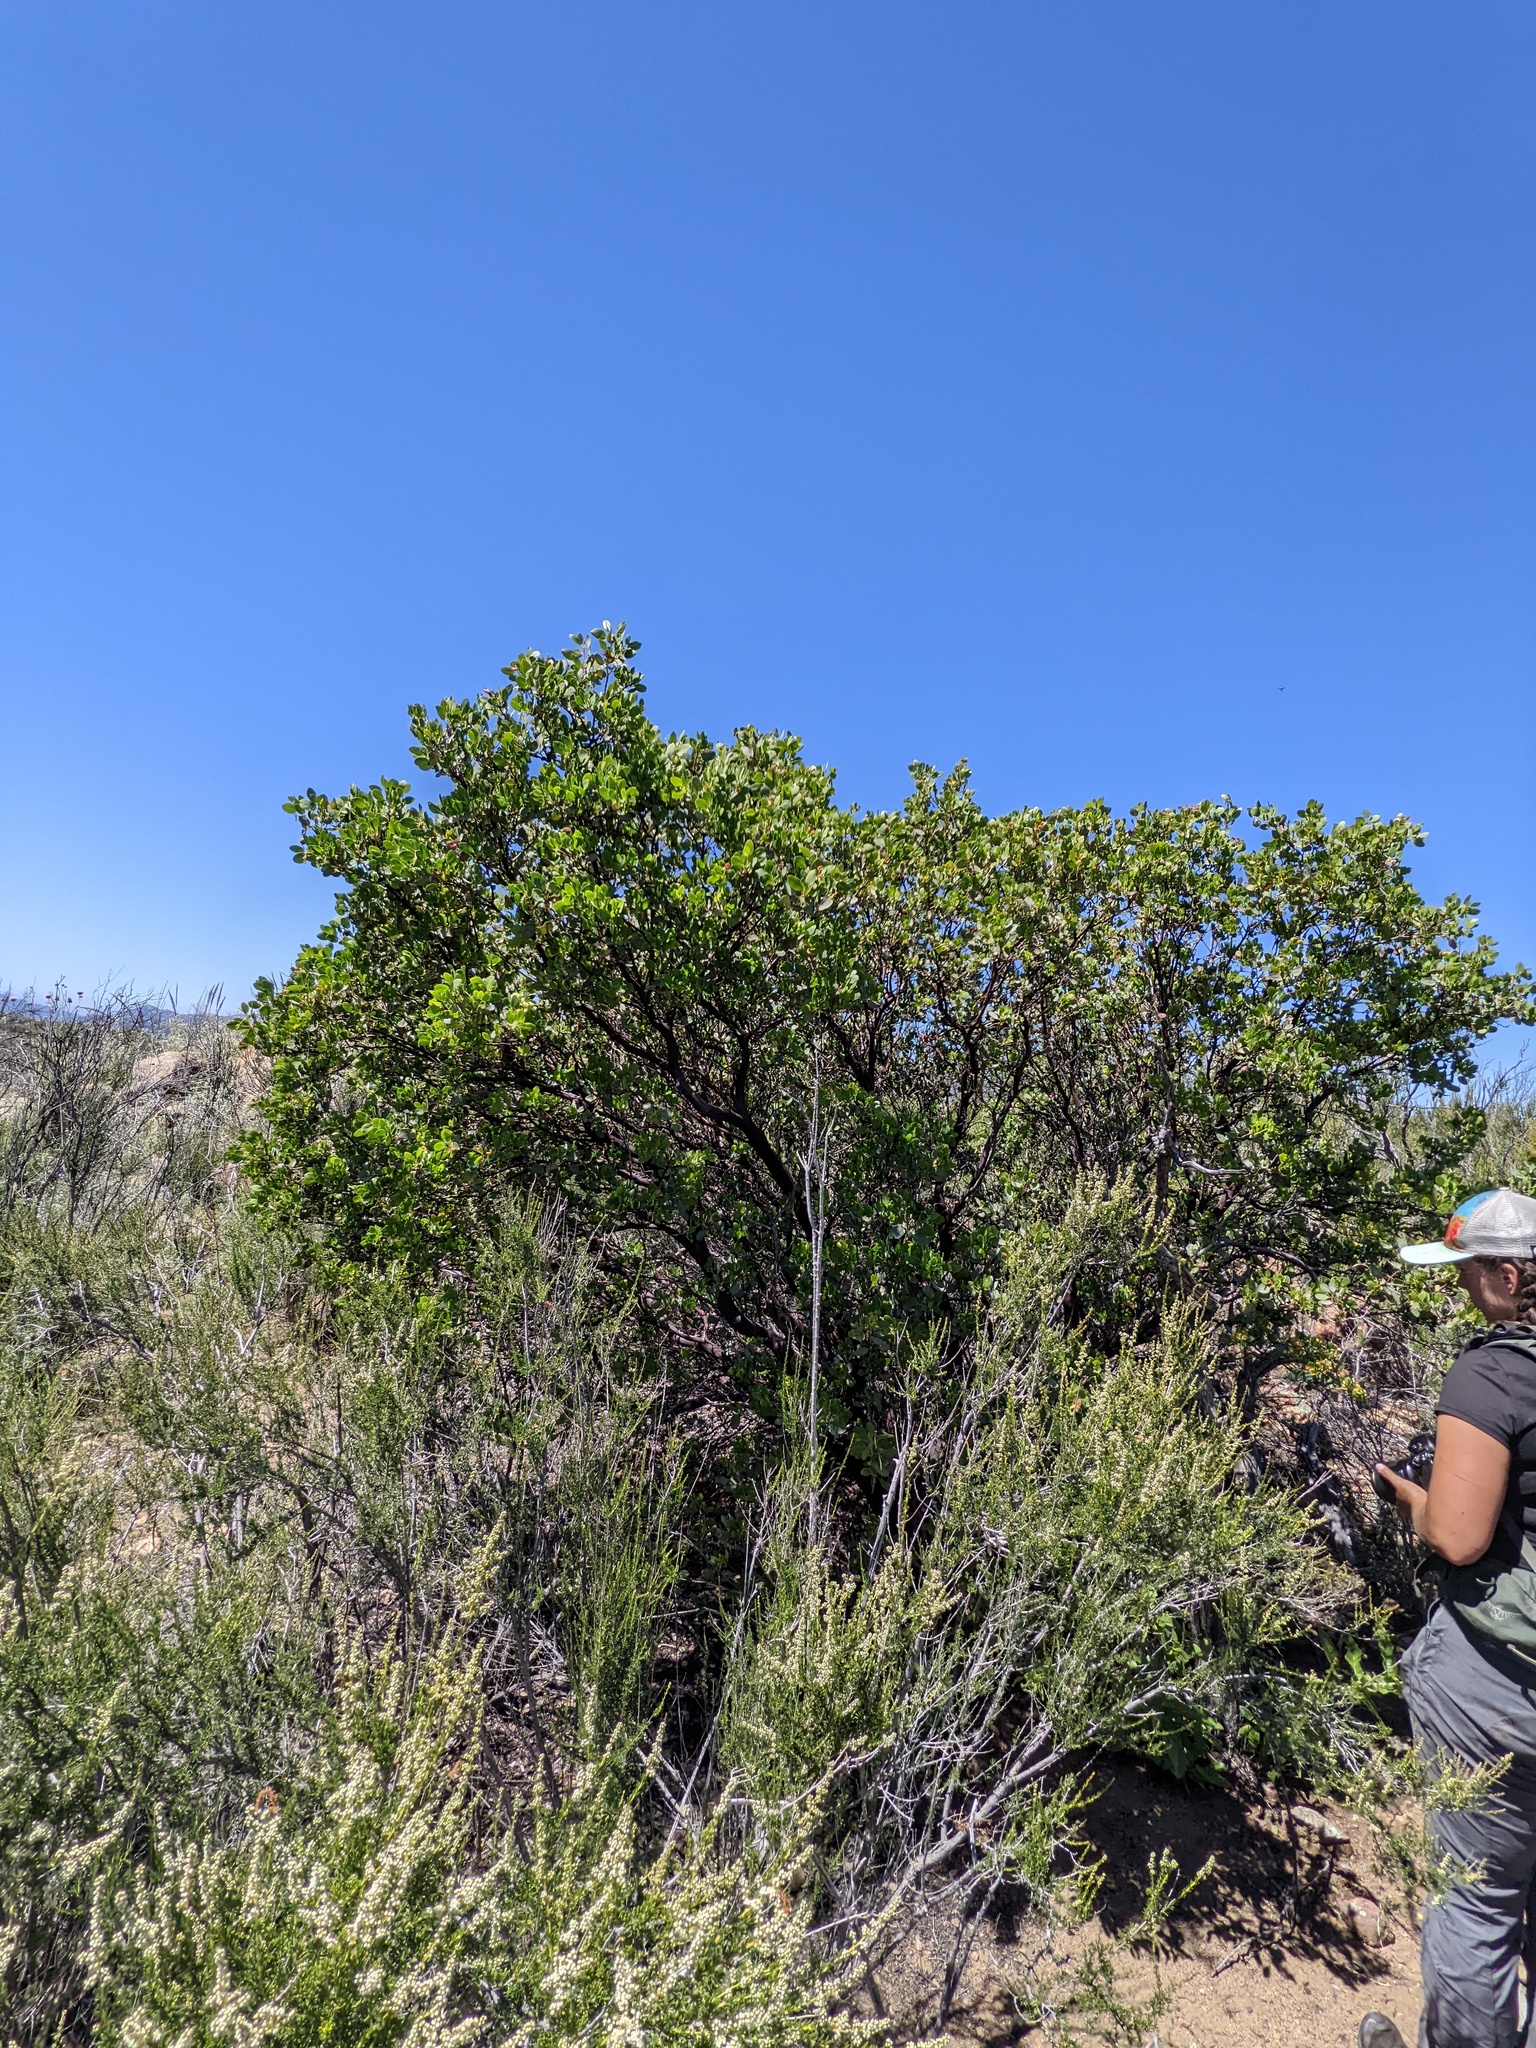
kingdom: Plantae
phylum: Tracheophyta
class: Magnoliopsida
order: Ericales
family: Ericaceae
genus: Arctostaphylos
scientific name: Arctostaphylos glauca
